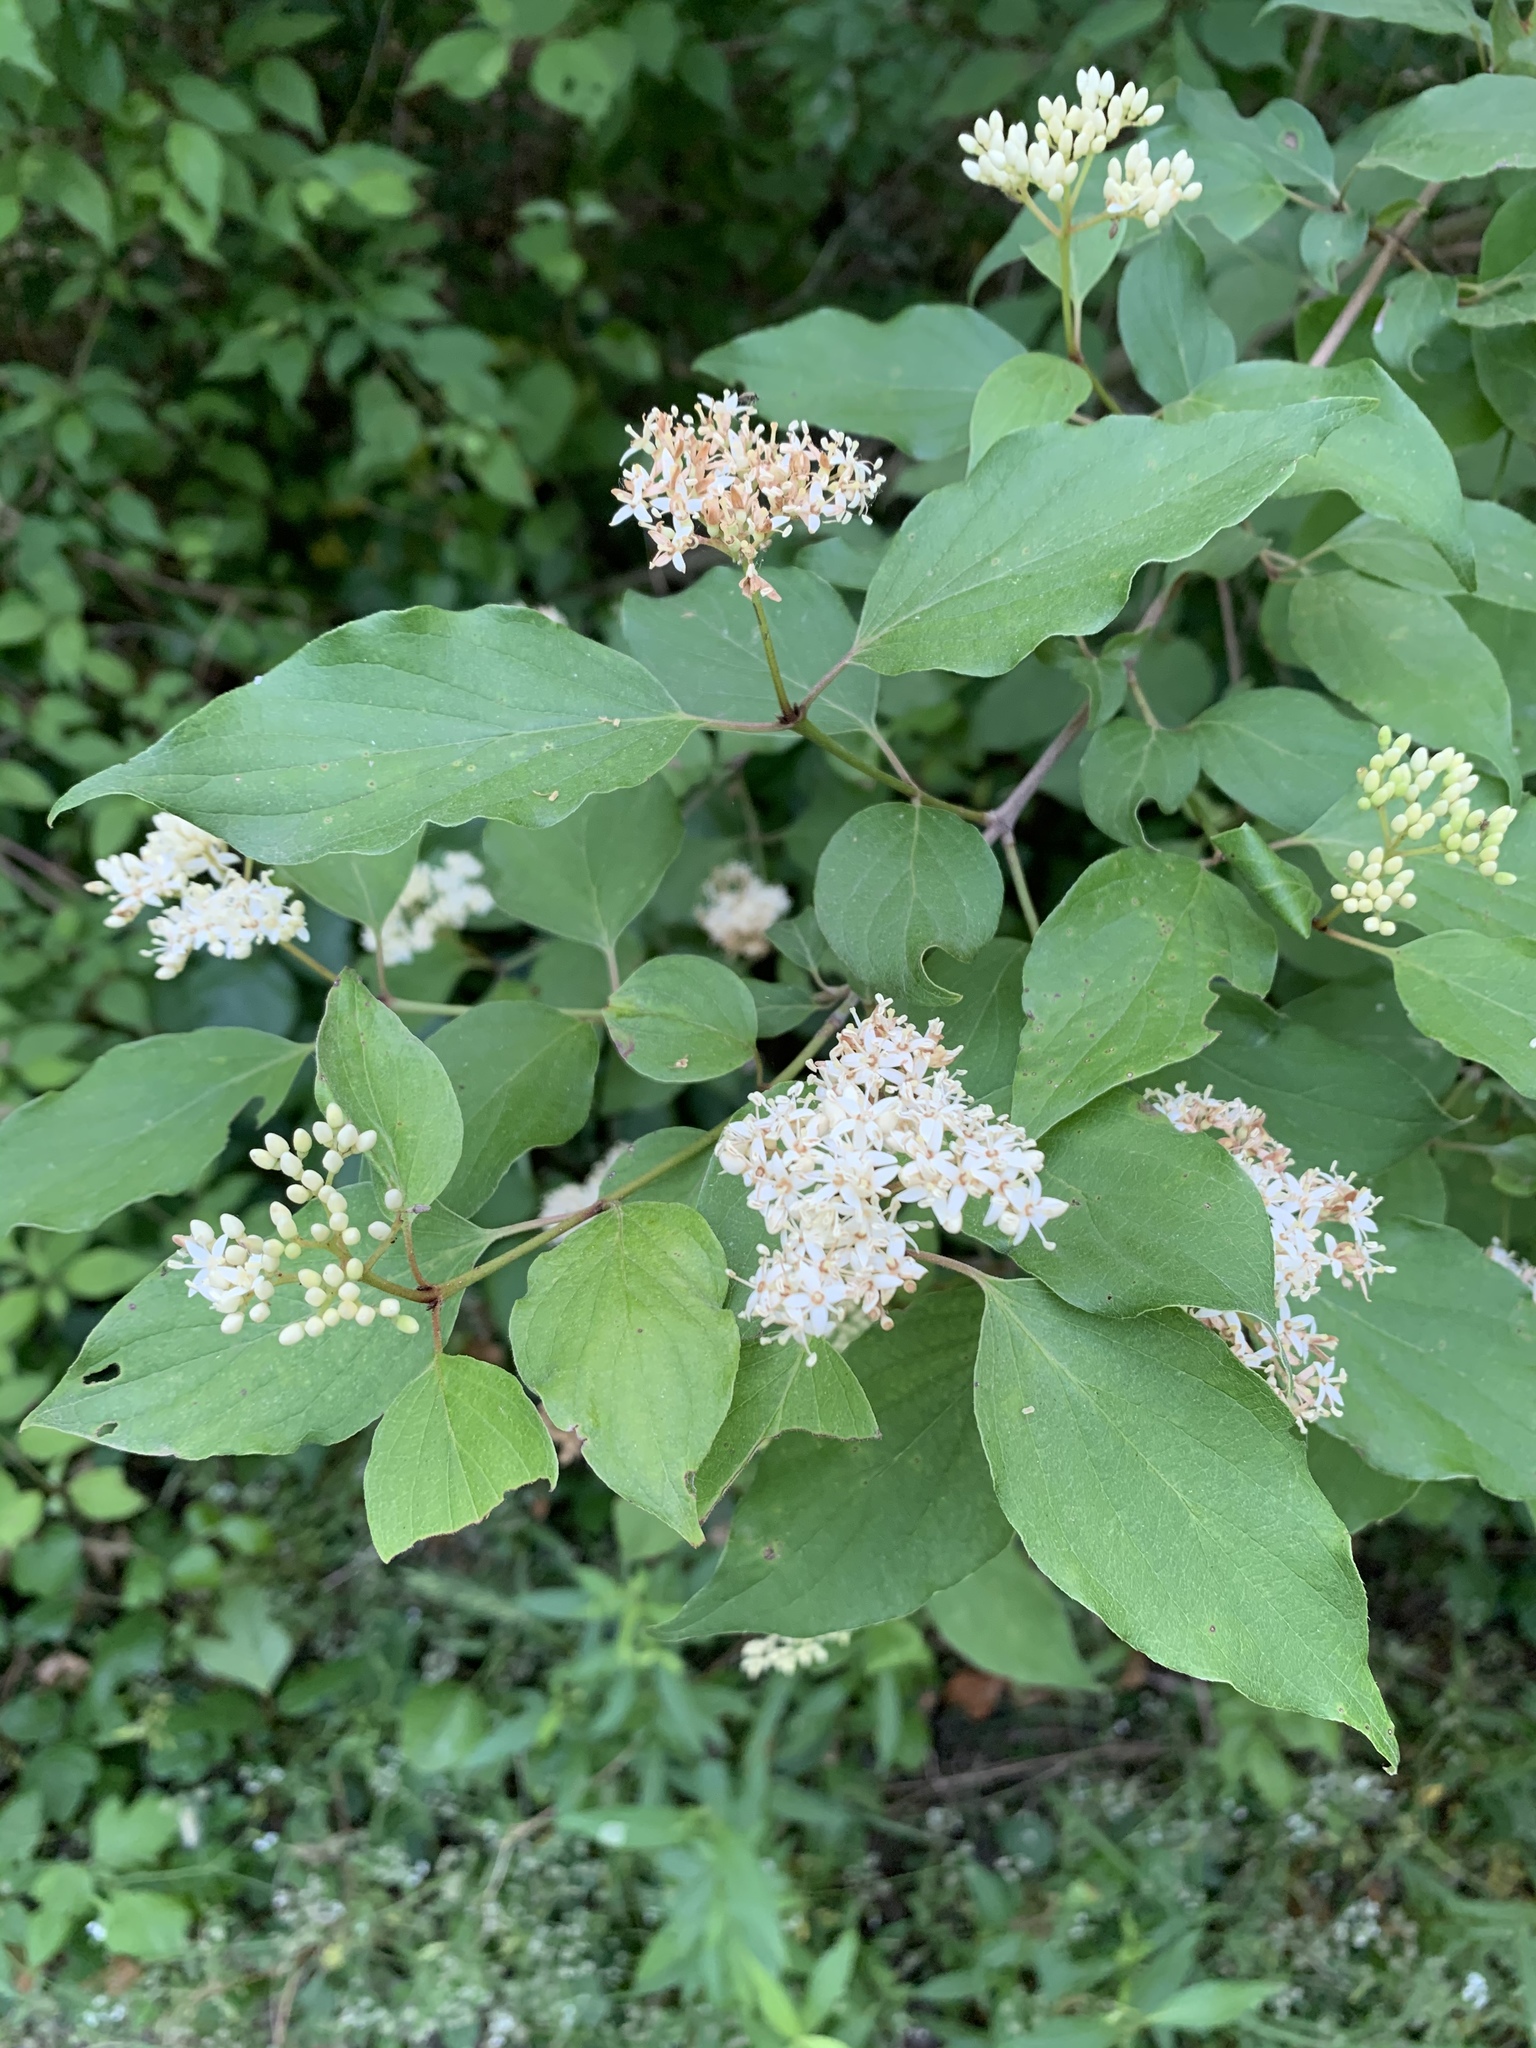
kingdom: Plantae
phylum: Tracheophyta
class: Magnoliopsida
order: Cornales
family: Cornaceae
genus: Cornus
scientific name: Cornus drummondii
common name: Rough-leaf dogwood
